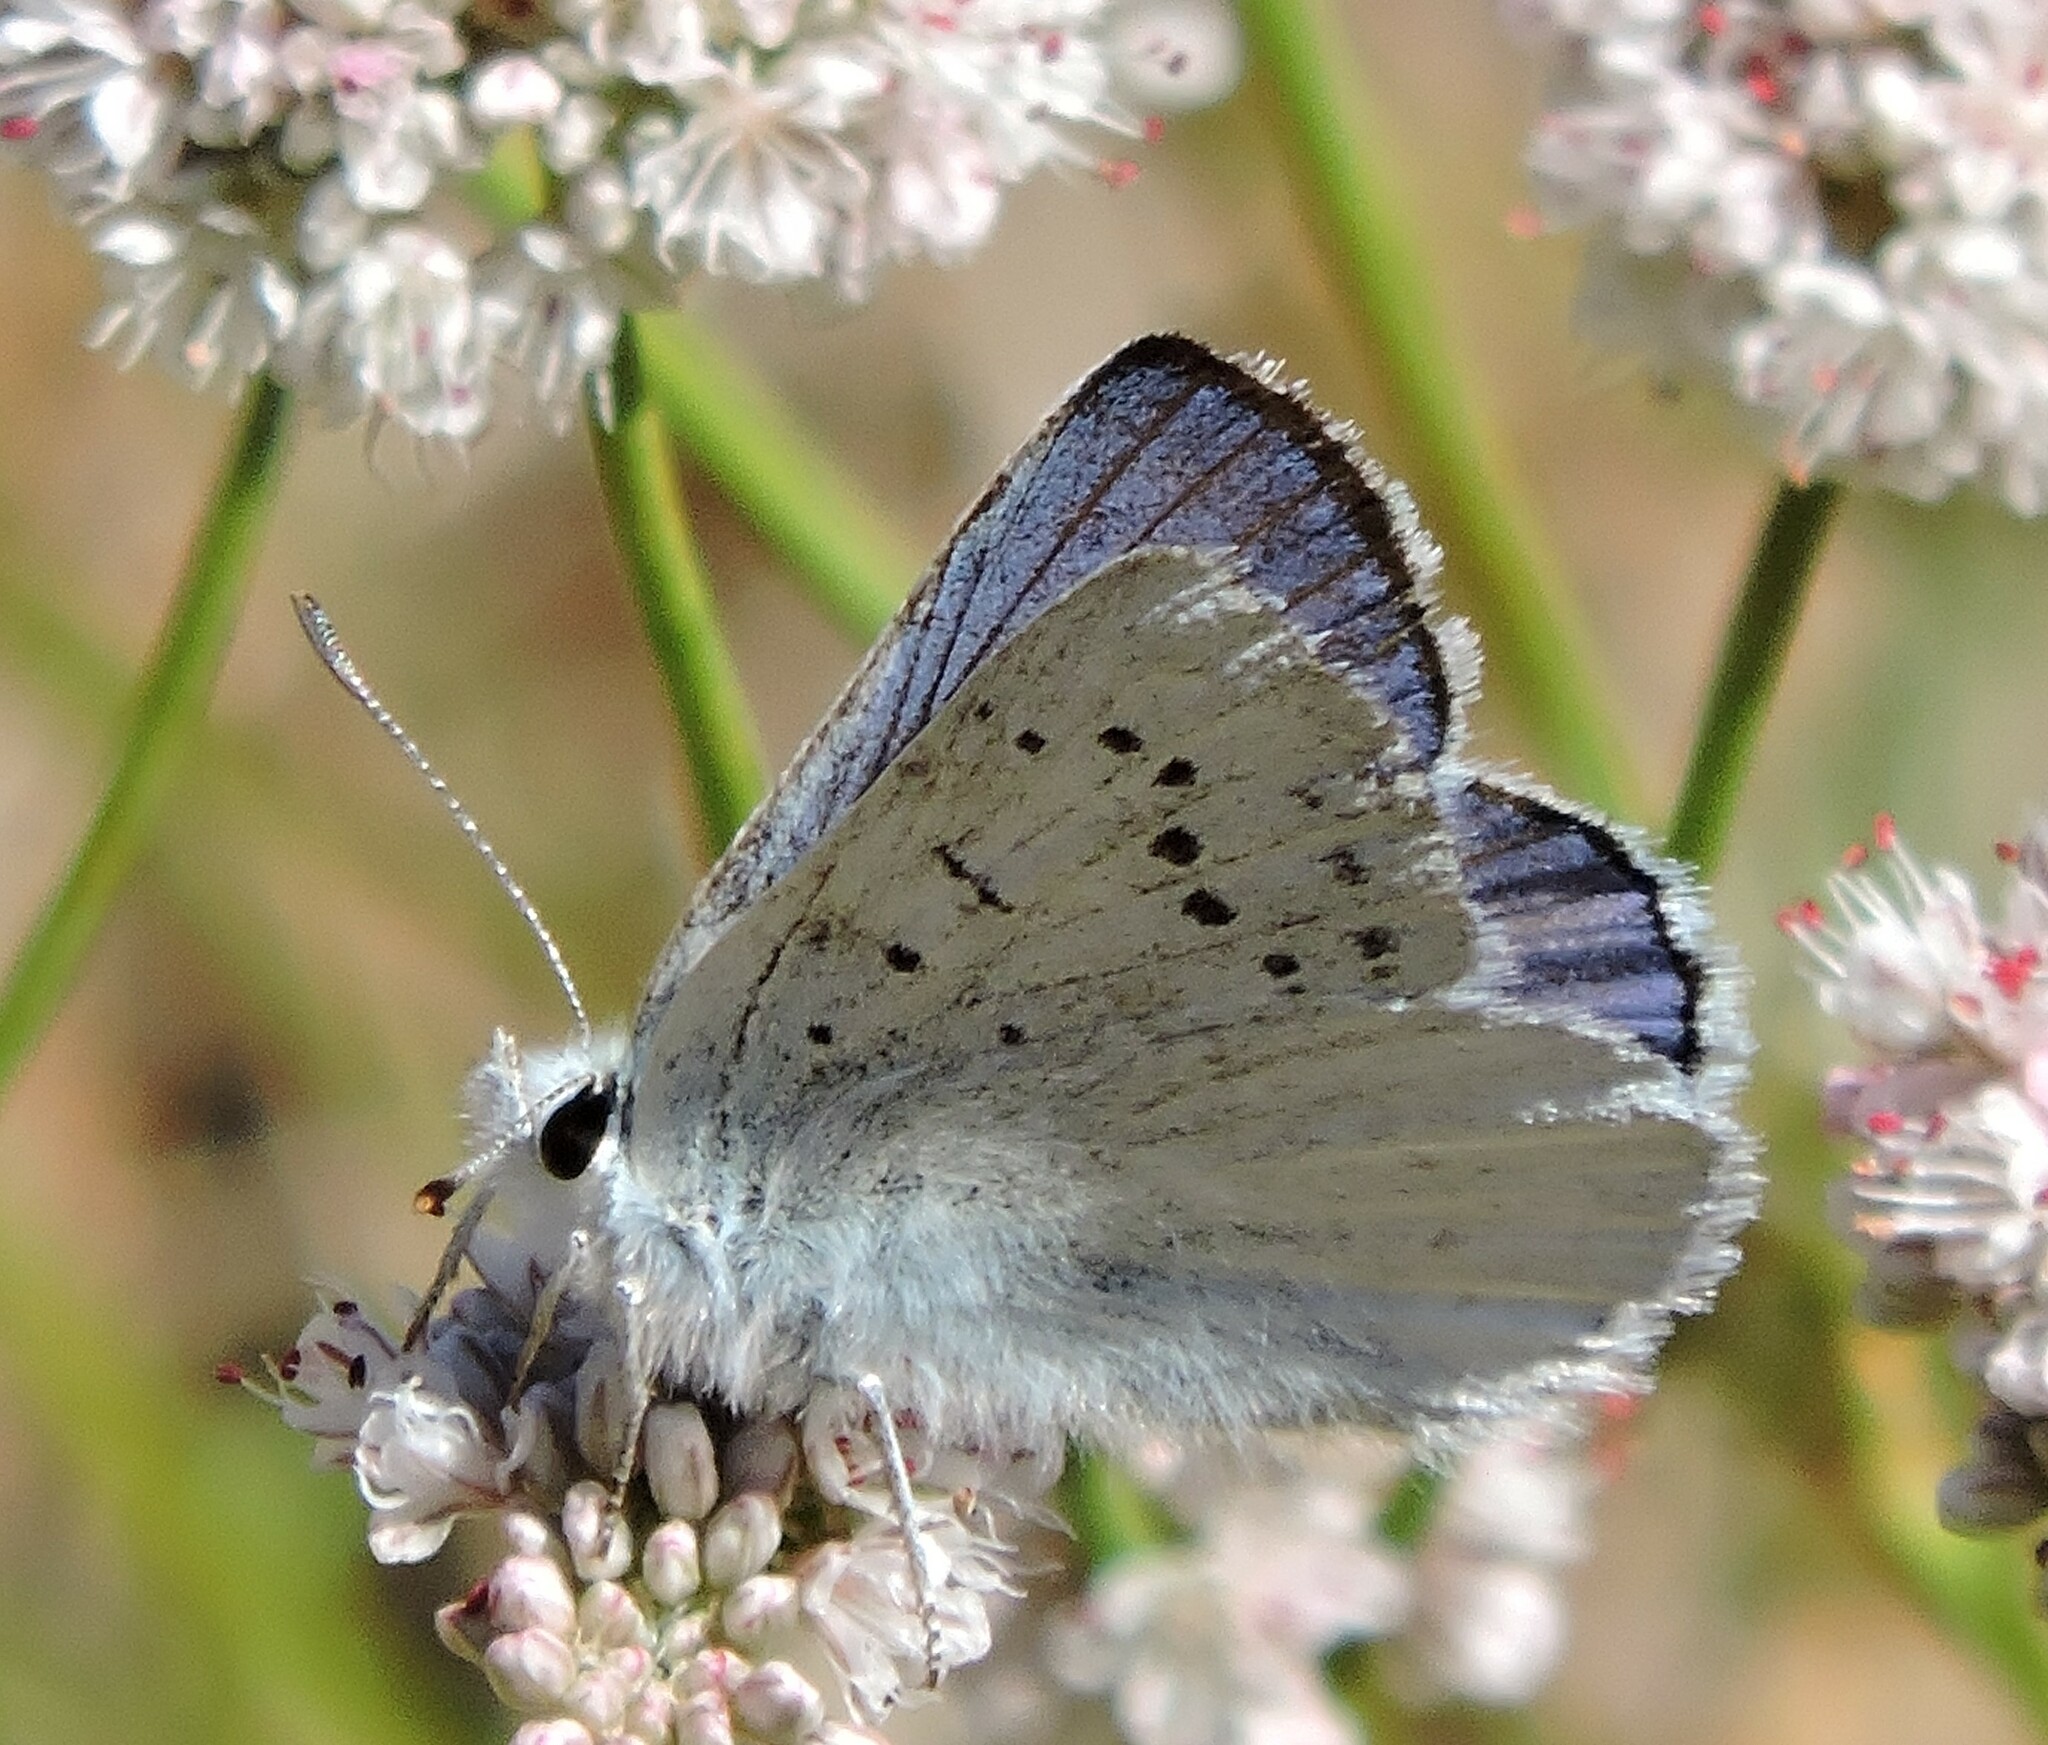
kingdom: Animalia
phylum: Arthropoda
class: Insecta
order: Lepidoptera
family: Lycaenidae
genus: Tharsalea
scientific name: Tharsalea heteronea
